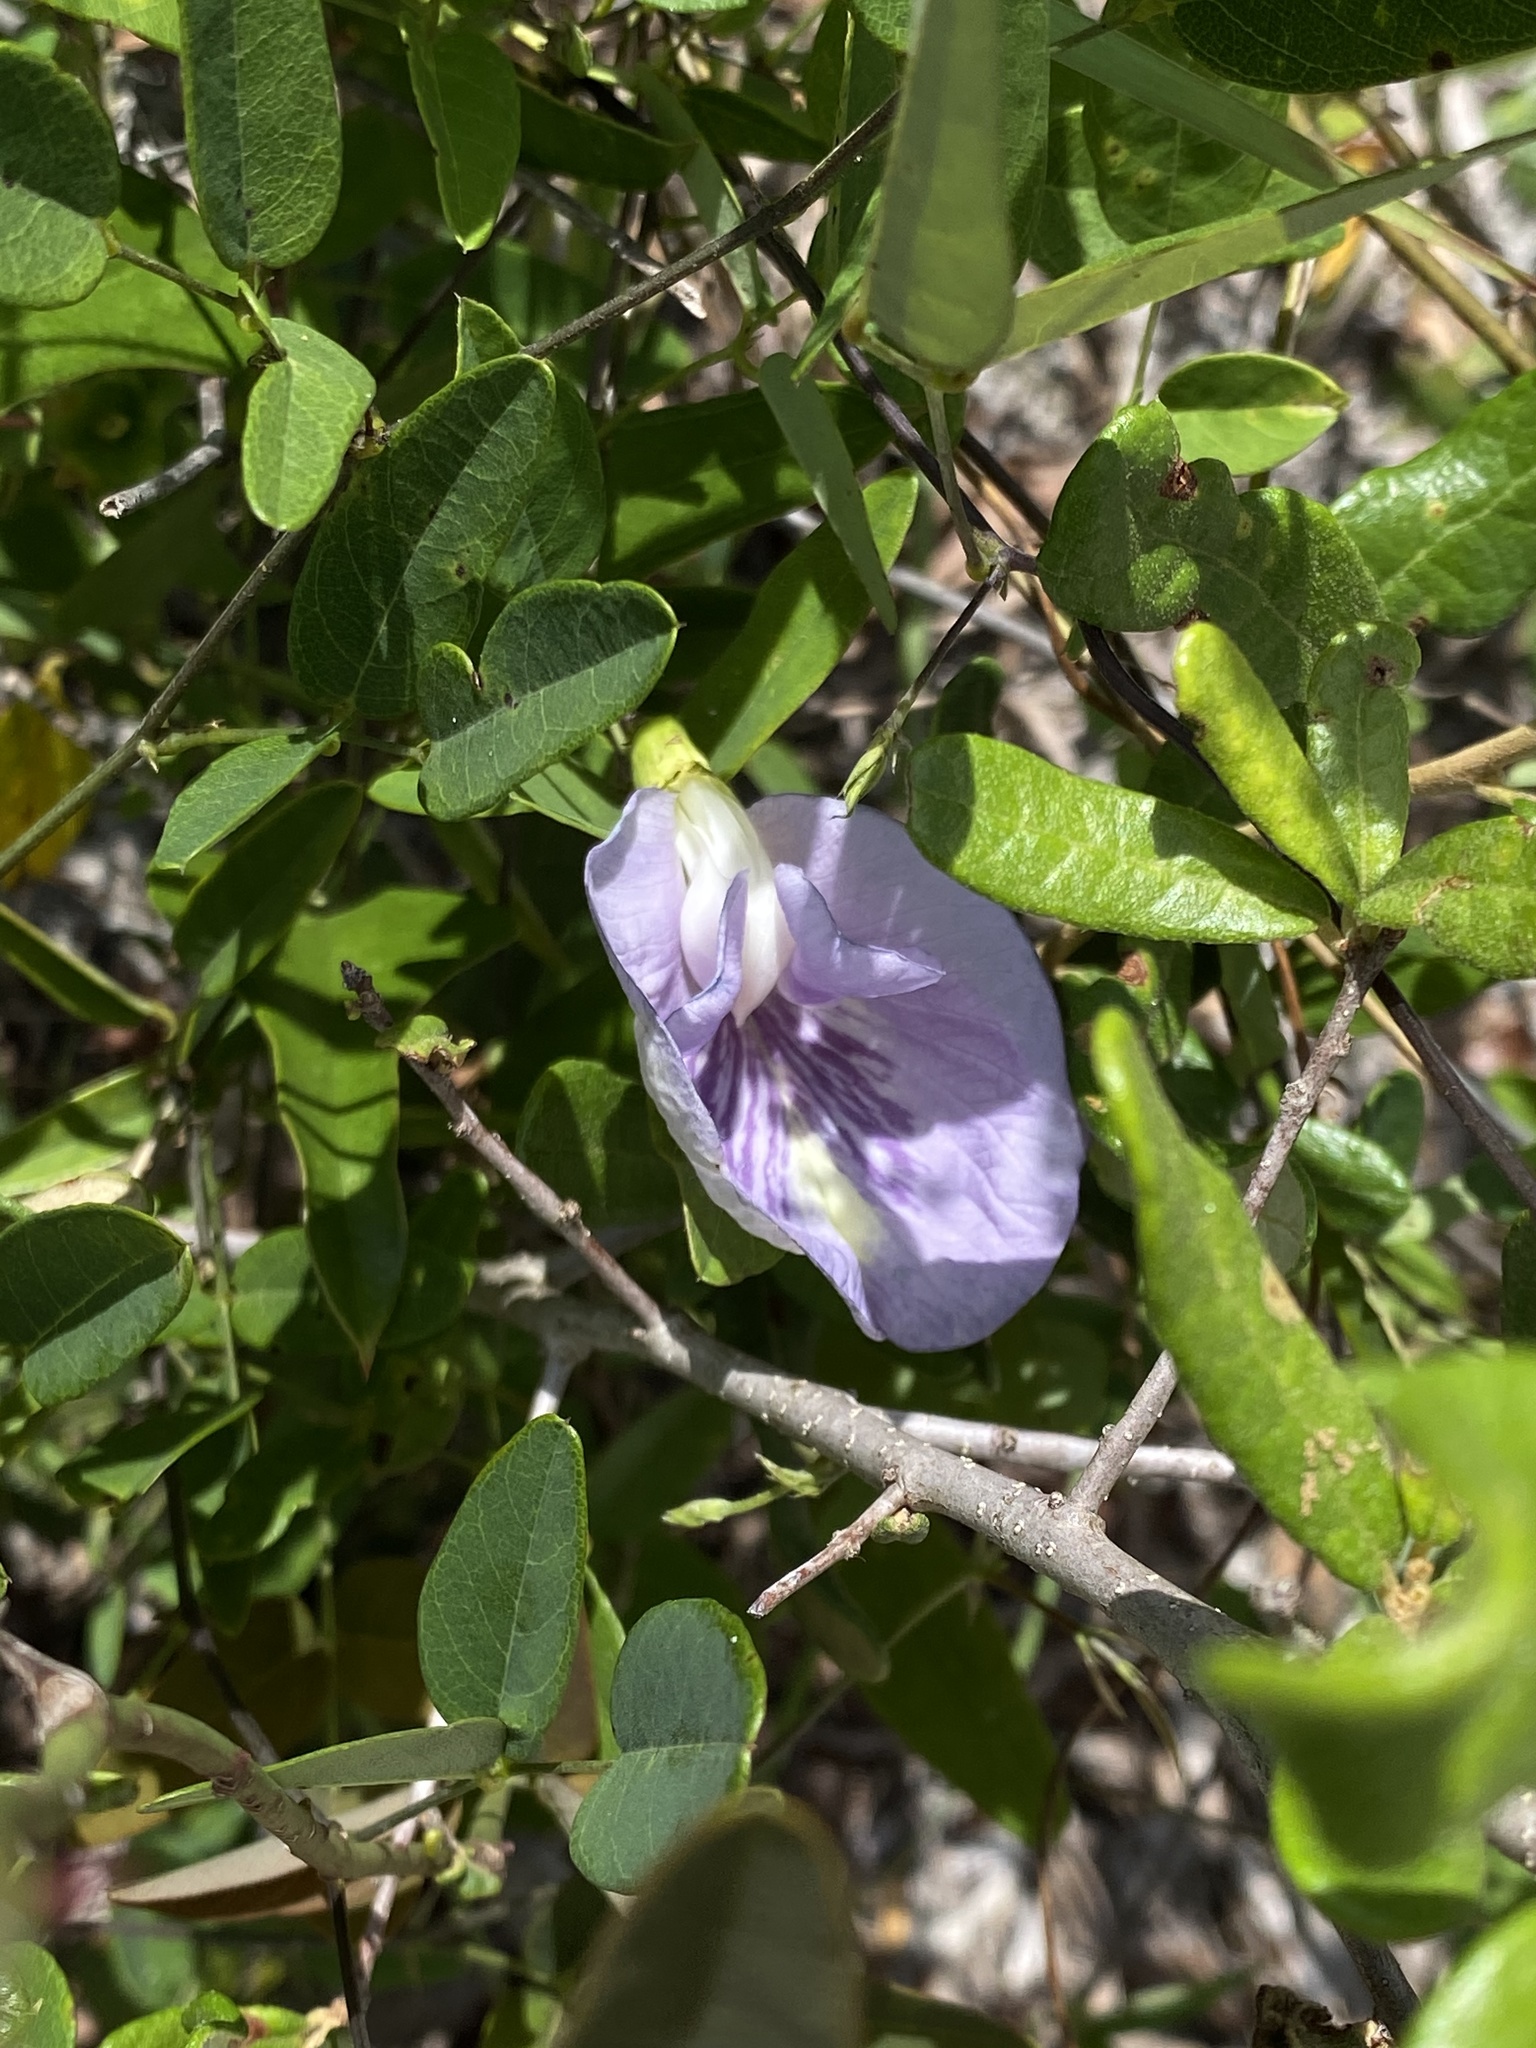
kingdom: Plantae
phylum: Tracheophyta
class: Magnoliopsida
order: Fabales
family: Fabaceae
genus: Clitoria
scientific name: Clitoria mariana
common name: Butterfly-pea
